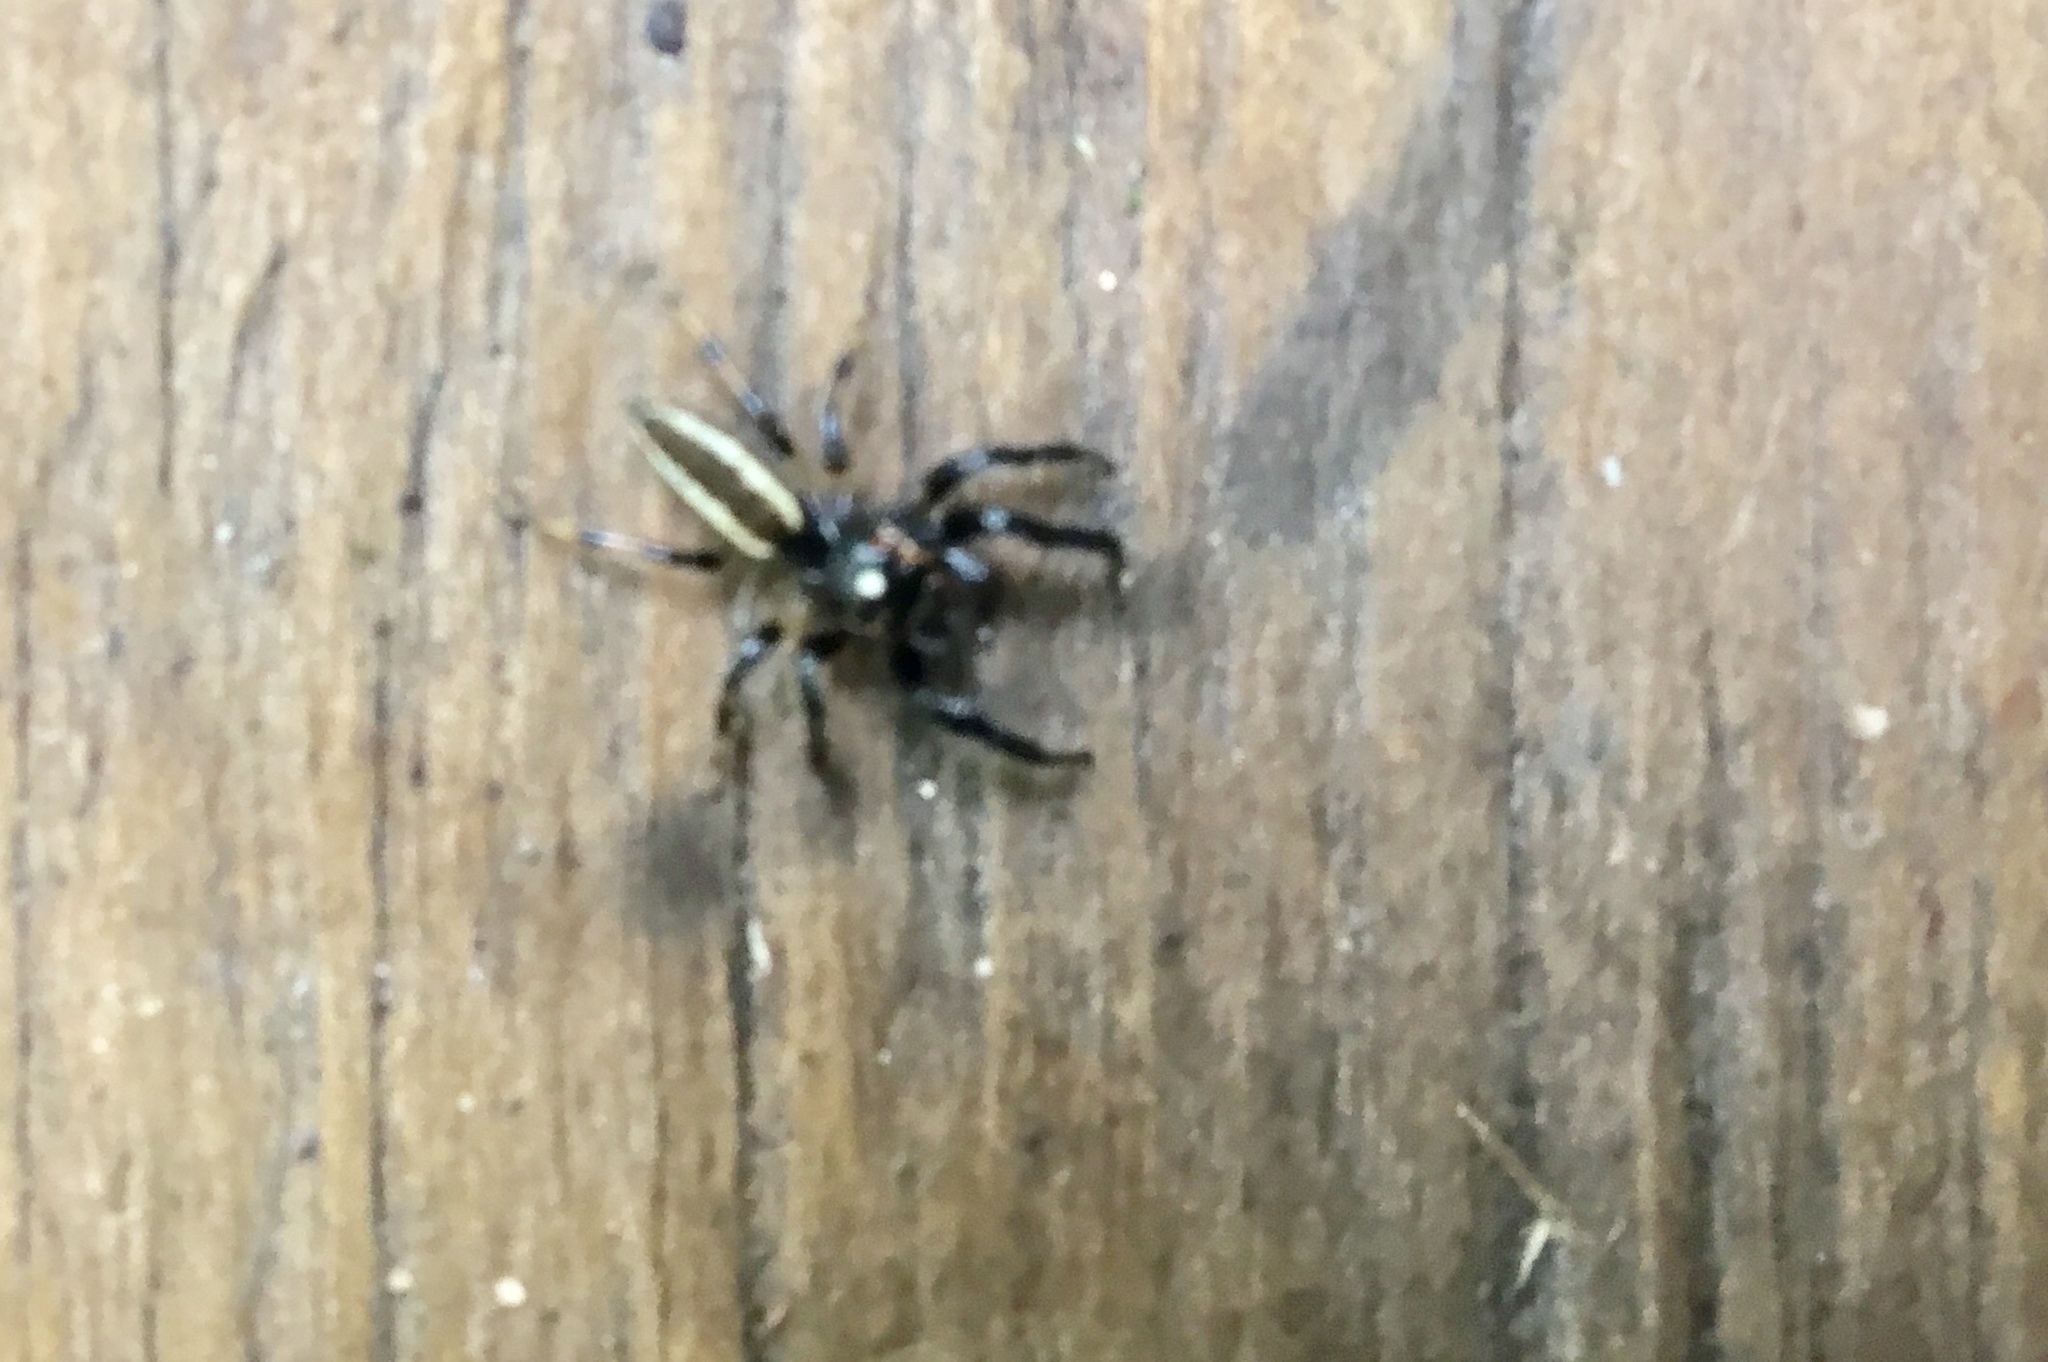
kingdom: Animalia
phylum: Arthropoda
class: Arachnida
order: Araneae
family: Salticidae
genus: Colonus
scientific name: Colonus sylvanus
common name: Jumping spiders
